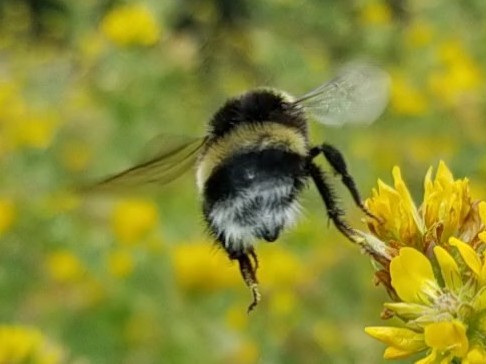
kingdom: Animalia
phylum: Arthropoda
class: Insecta
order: Hymenoptera
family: Apidae
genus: Bombus
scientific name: Bombus cryptarum
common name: Cryptic bumblebee
